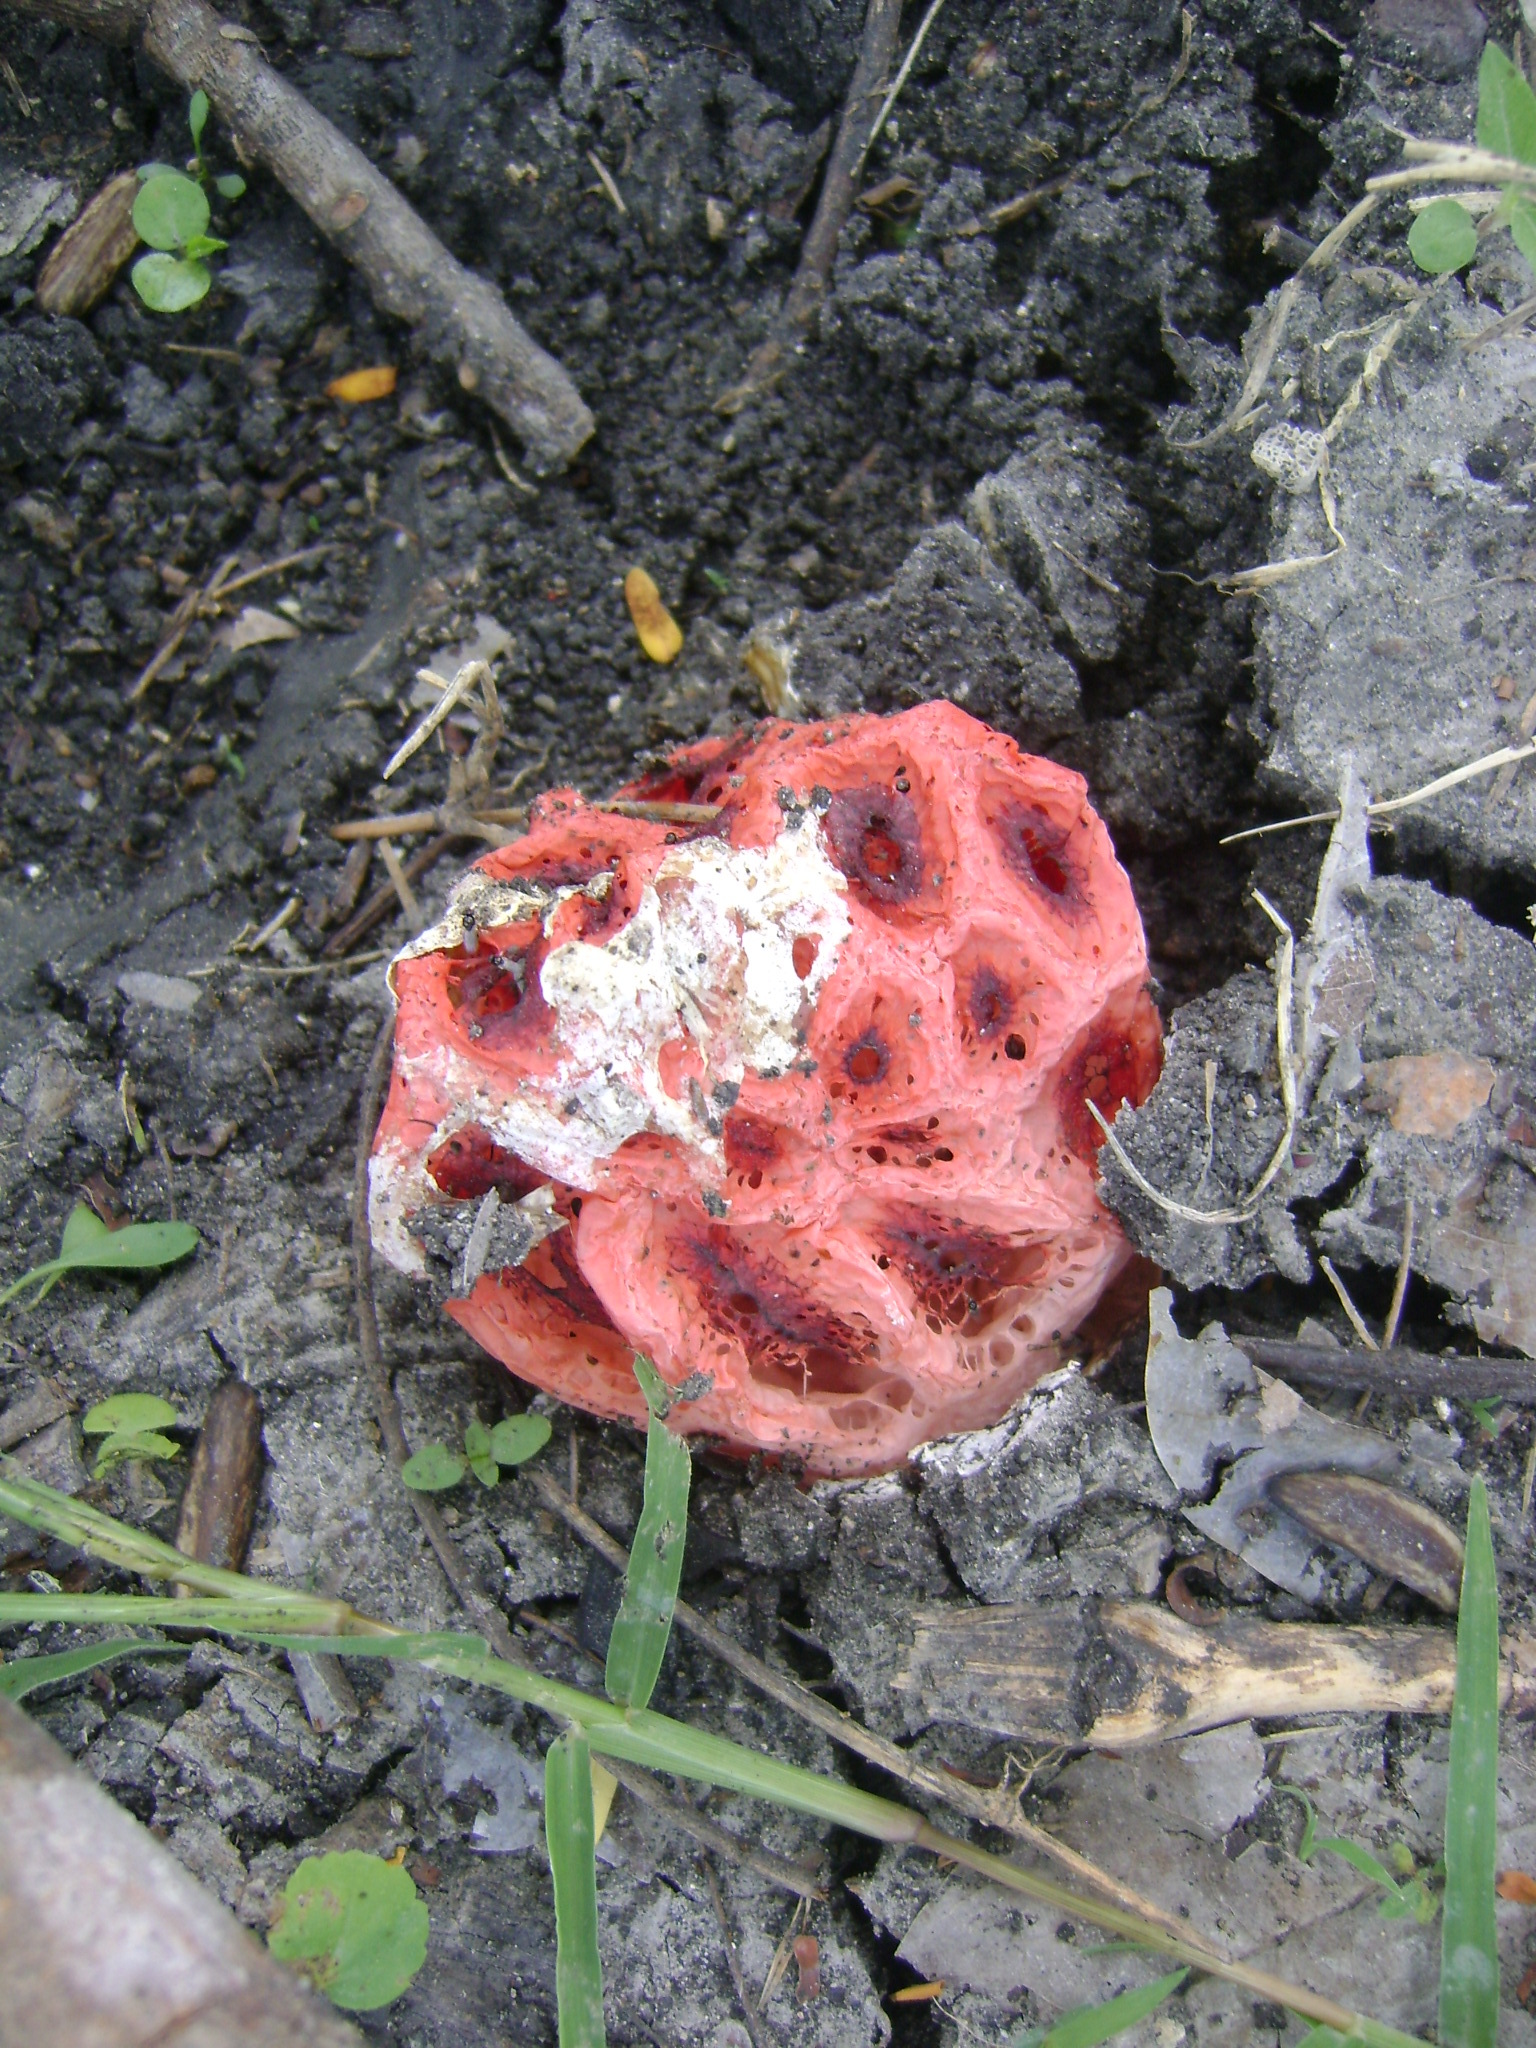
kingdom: Fungi
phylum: Basidiomycota
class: Agaricomycetes
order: Phallales
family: Phallaceae
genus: Clathrus
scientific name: Clathrus crispatus
